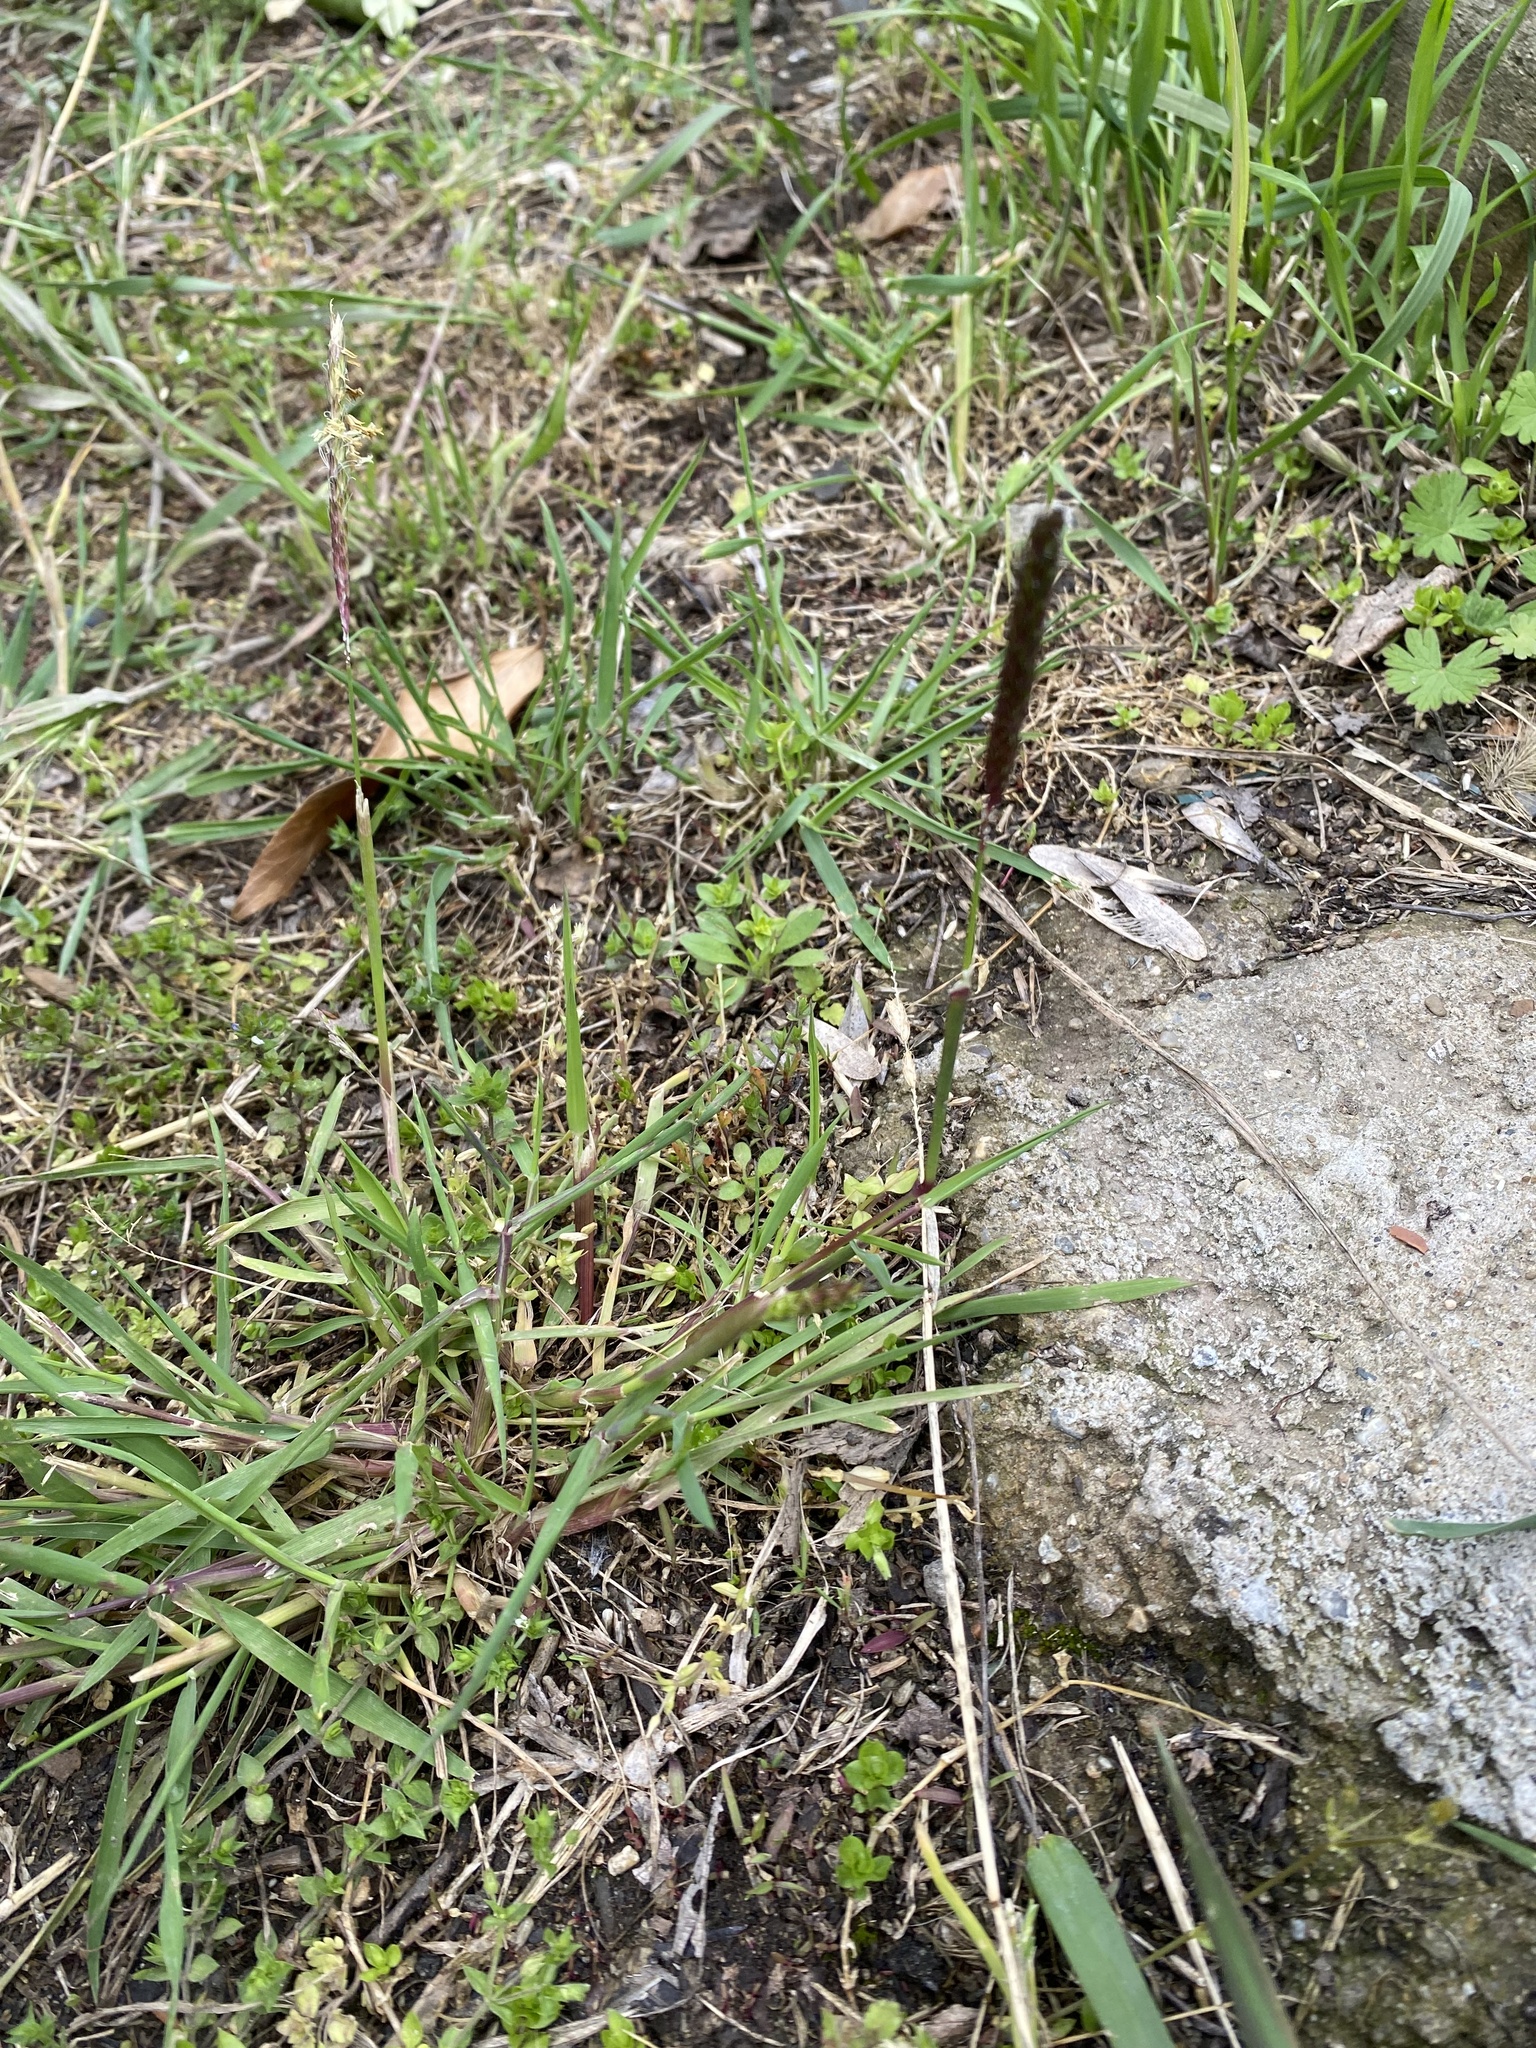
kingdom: Plantae
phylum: Tracheophyta
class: Liliopsida
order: Poales
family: Poaceae
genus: Alopecurus
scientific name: Alopecurus myosuroides
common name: Black-grass
